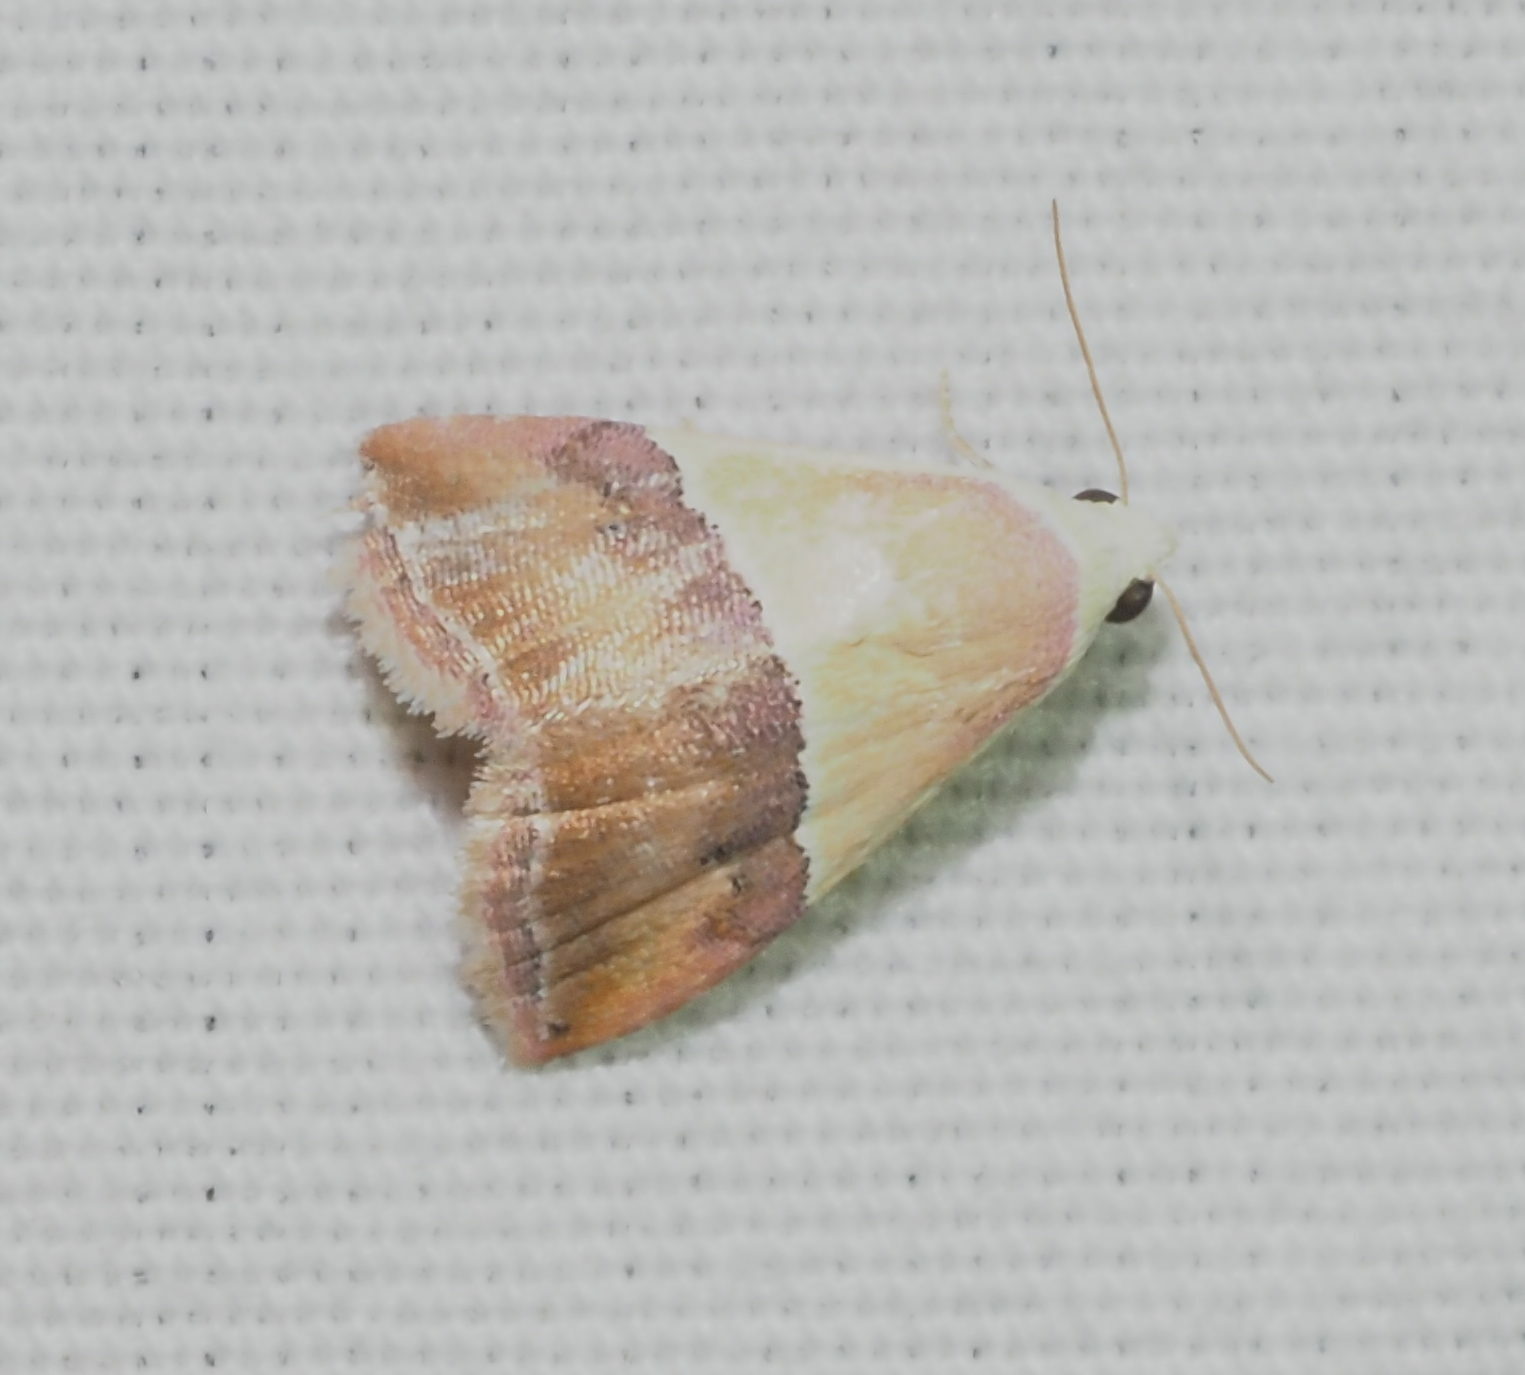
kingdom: Animalia
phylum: Arthropoda
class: Insecta
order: Lepidoptera
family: Noctuidae
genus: Eublemma
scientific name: Eublemma accedens
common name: Moth
